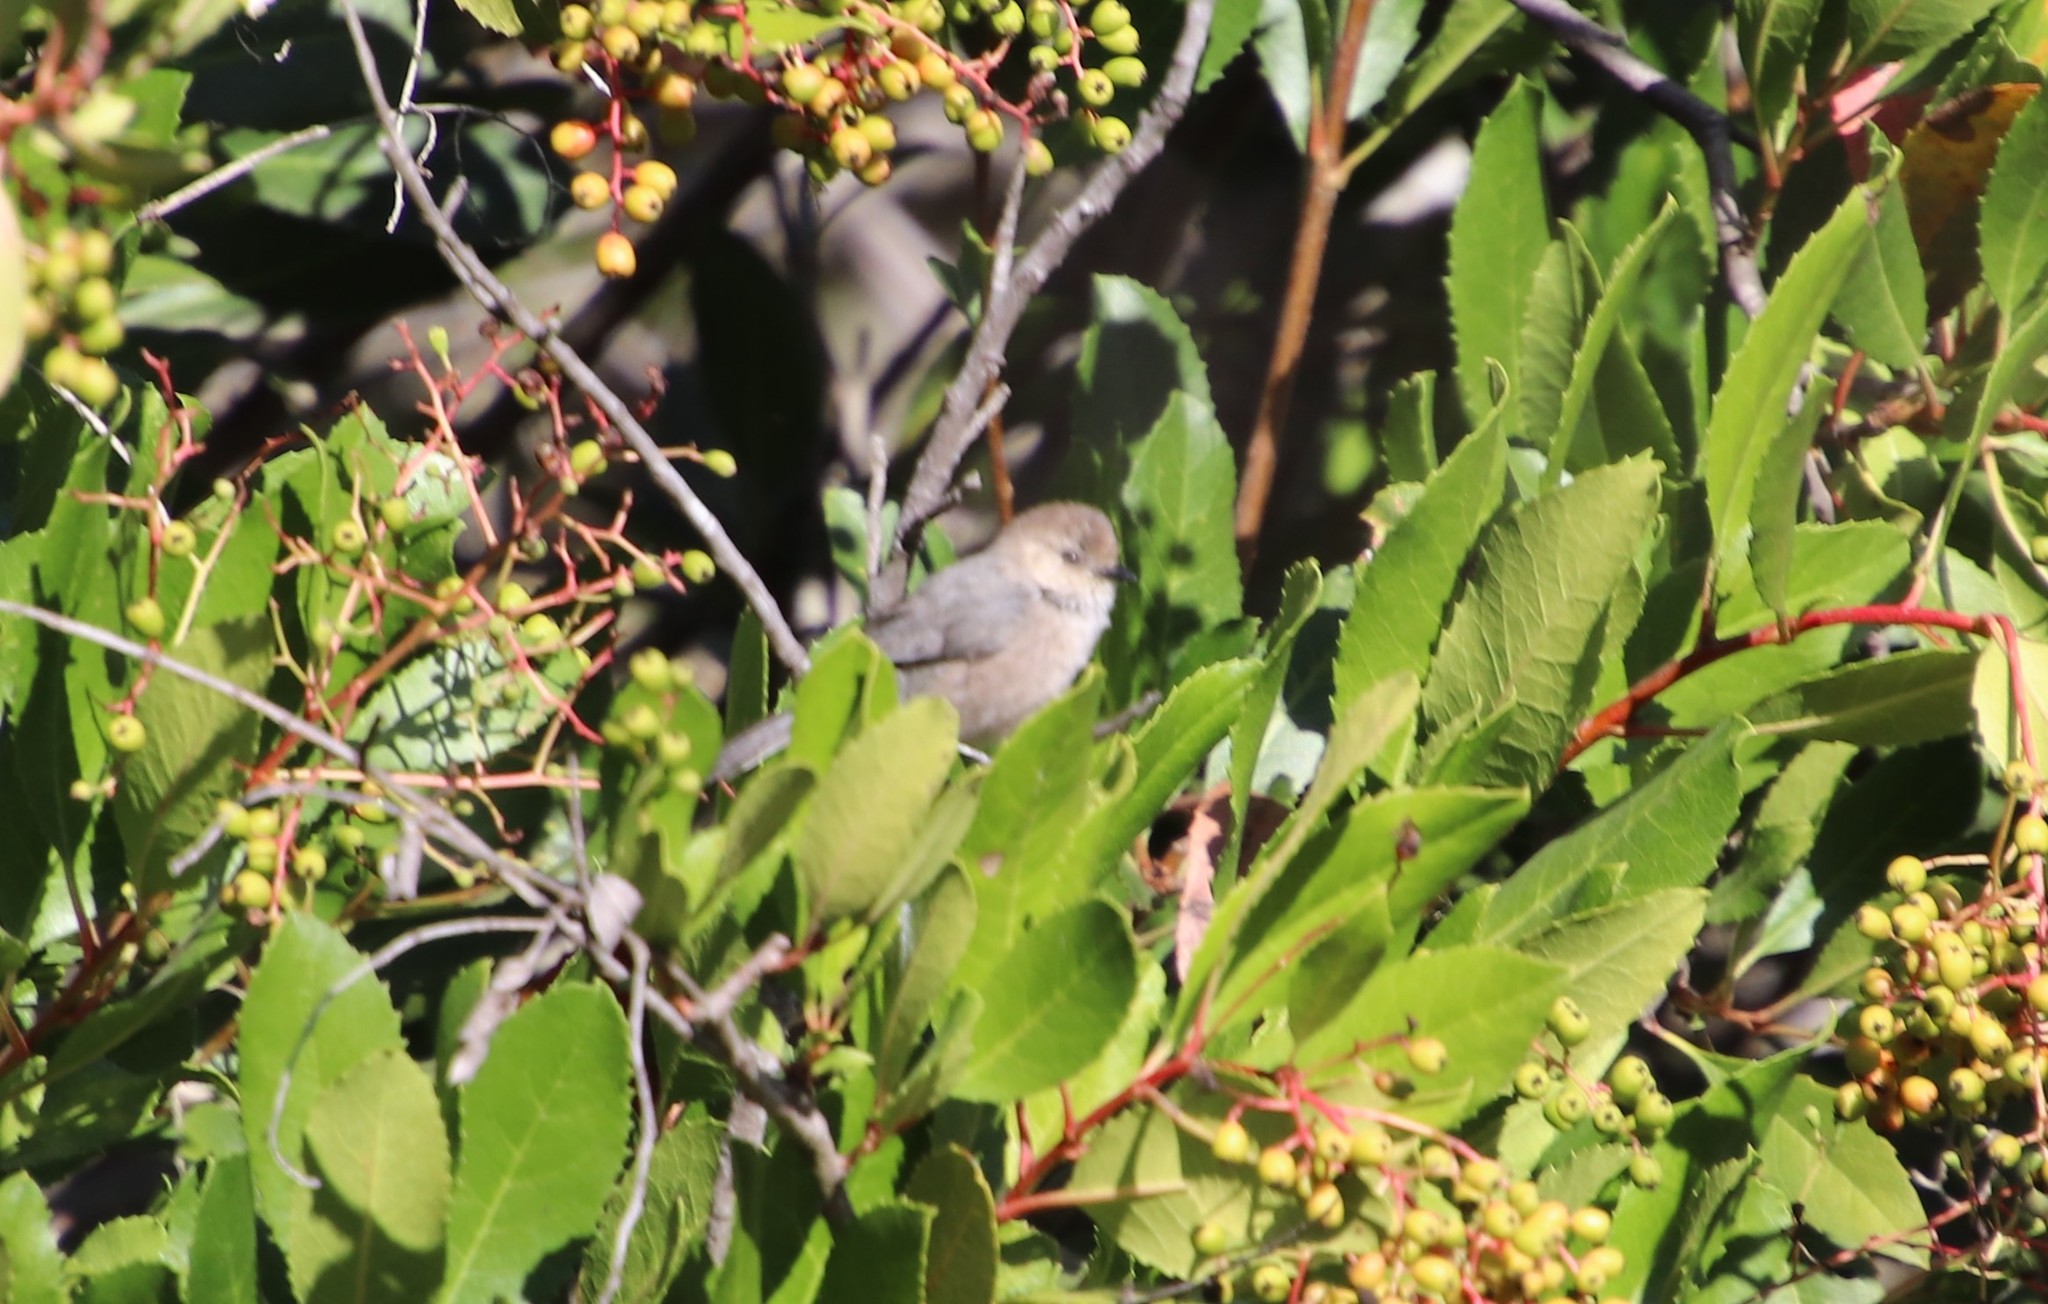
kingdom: Animalia
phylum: Chordata
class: Aves
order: Passeriformes
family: Aegithalidae
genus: Psaltriparus
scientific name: Psaltriparus minimus
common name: American bushtit
